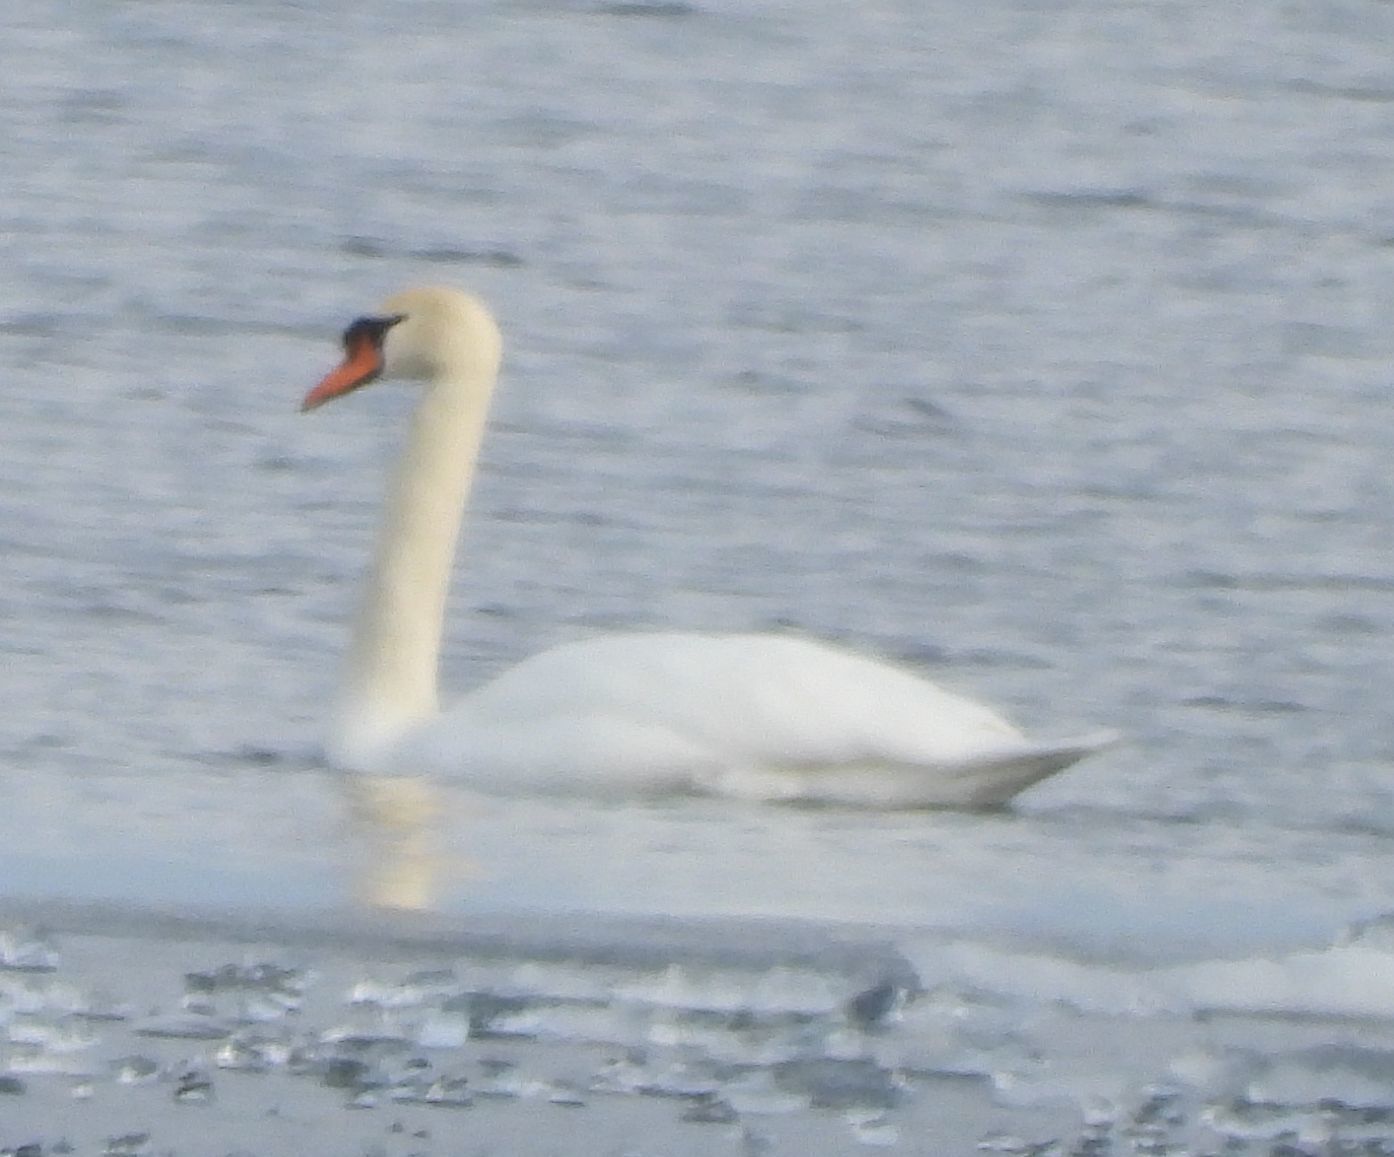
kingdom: Animalia
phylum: Chordata
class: Aves
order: Anseriformes
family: Anatidae
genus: Cygnus
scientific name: Cygnus olor
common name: Mute swan
